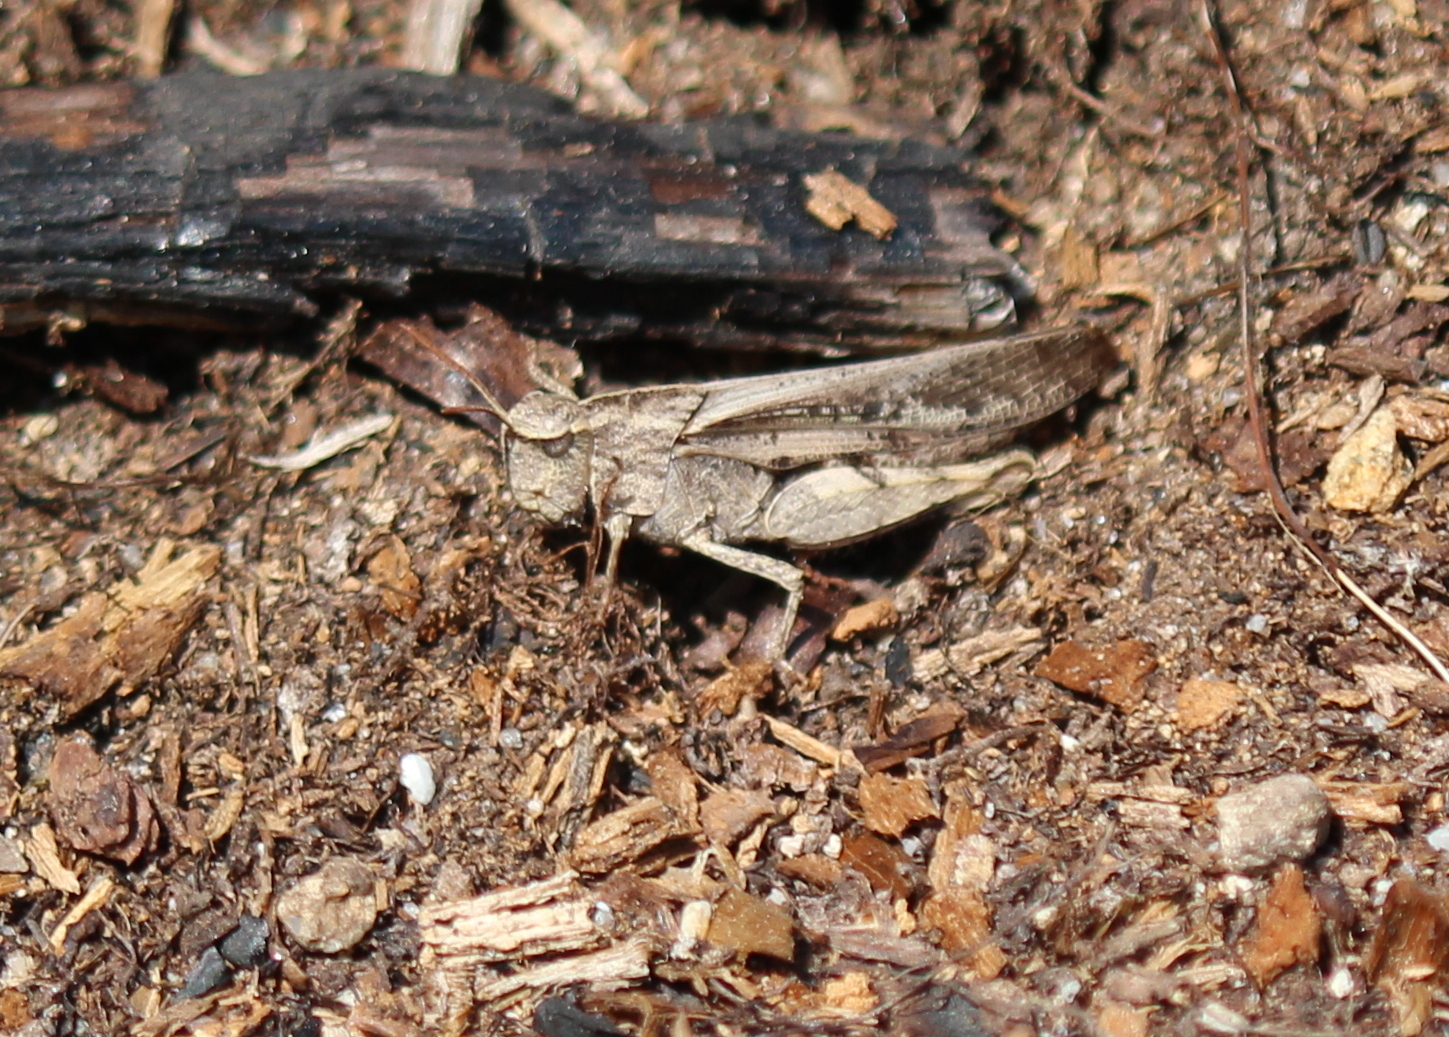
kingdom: Animalia
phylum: Arthropoda
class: Insecta
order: Orthoptera
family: Acrididae
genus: Chortophaga
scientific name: Chortophaga viridifasciata
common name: Green-striped grasshopper
